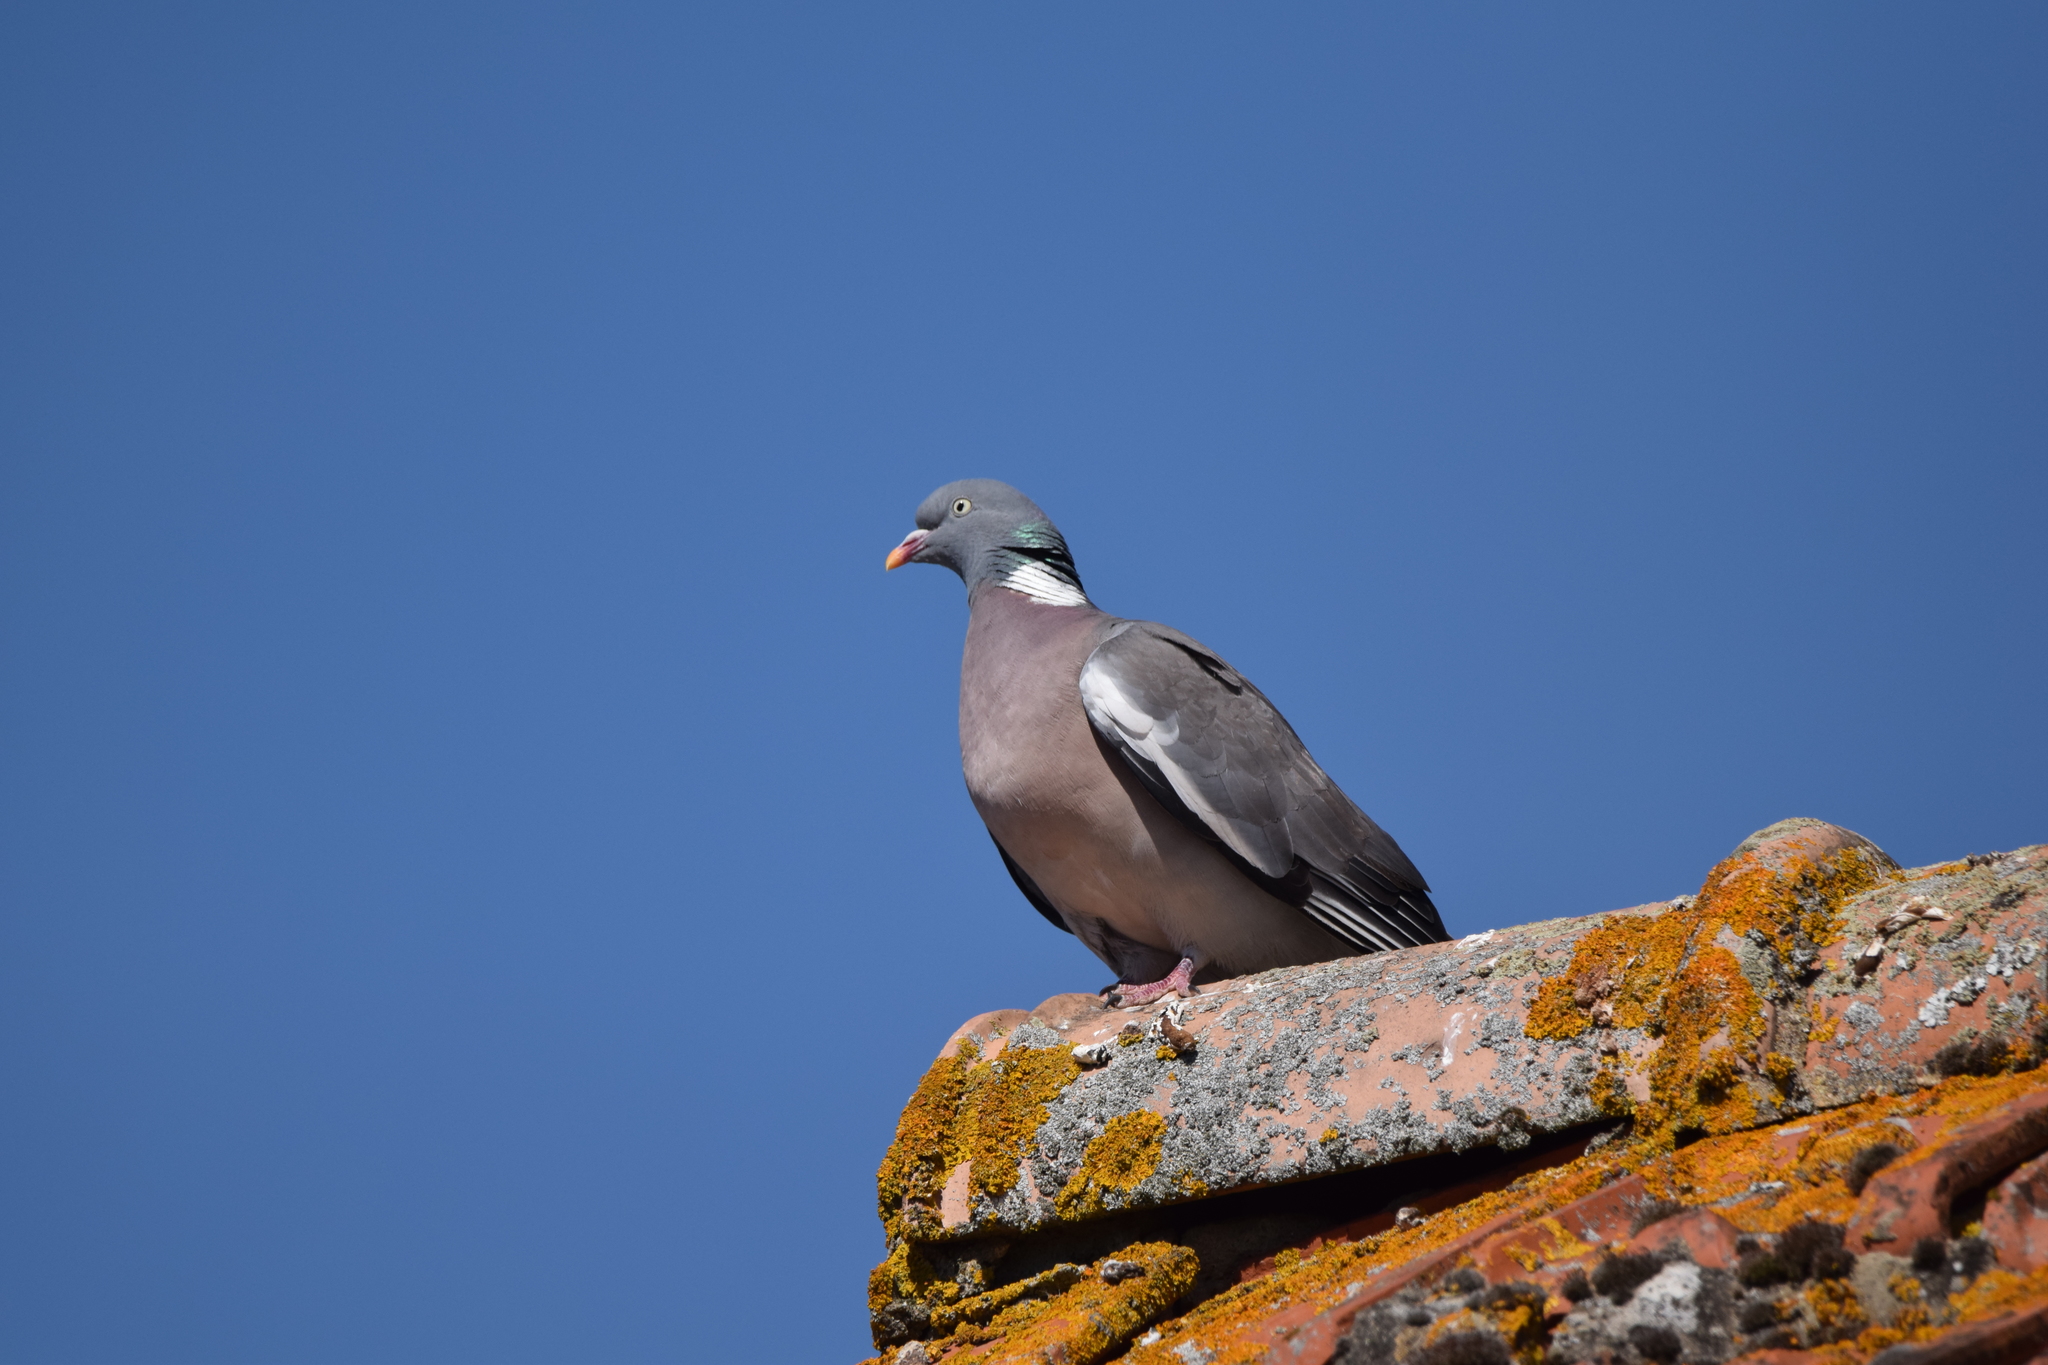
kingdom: Animalia
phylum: Chordata
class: Aves
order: Columbiformes
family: Columbidae
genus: Columba
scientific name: Columba palumbus
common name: Common wood pigeon
